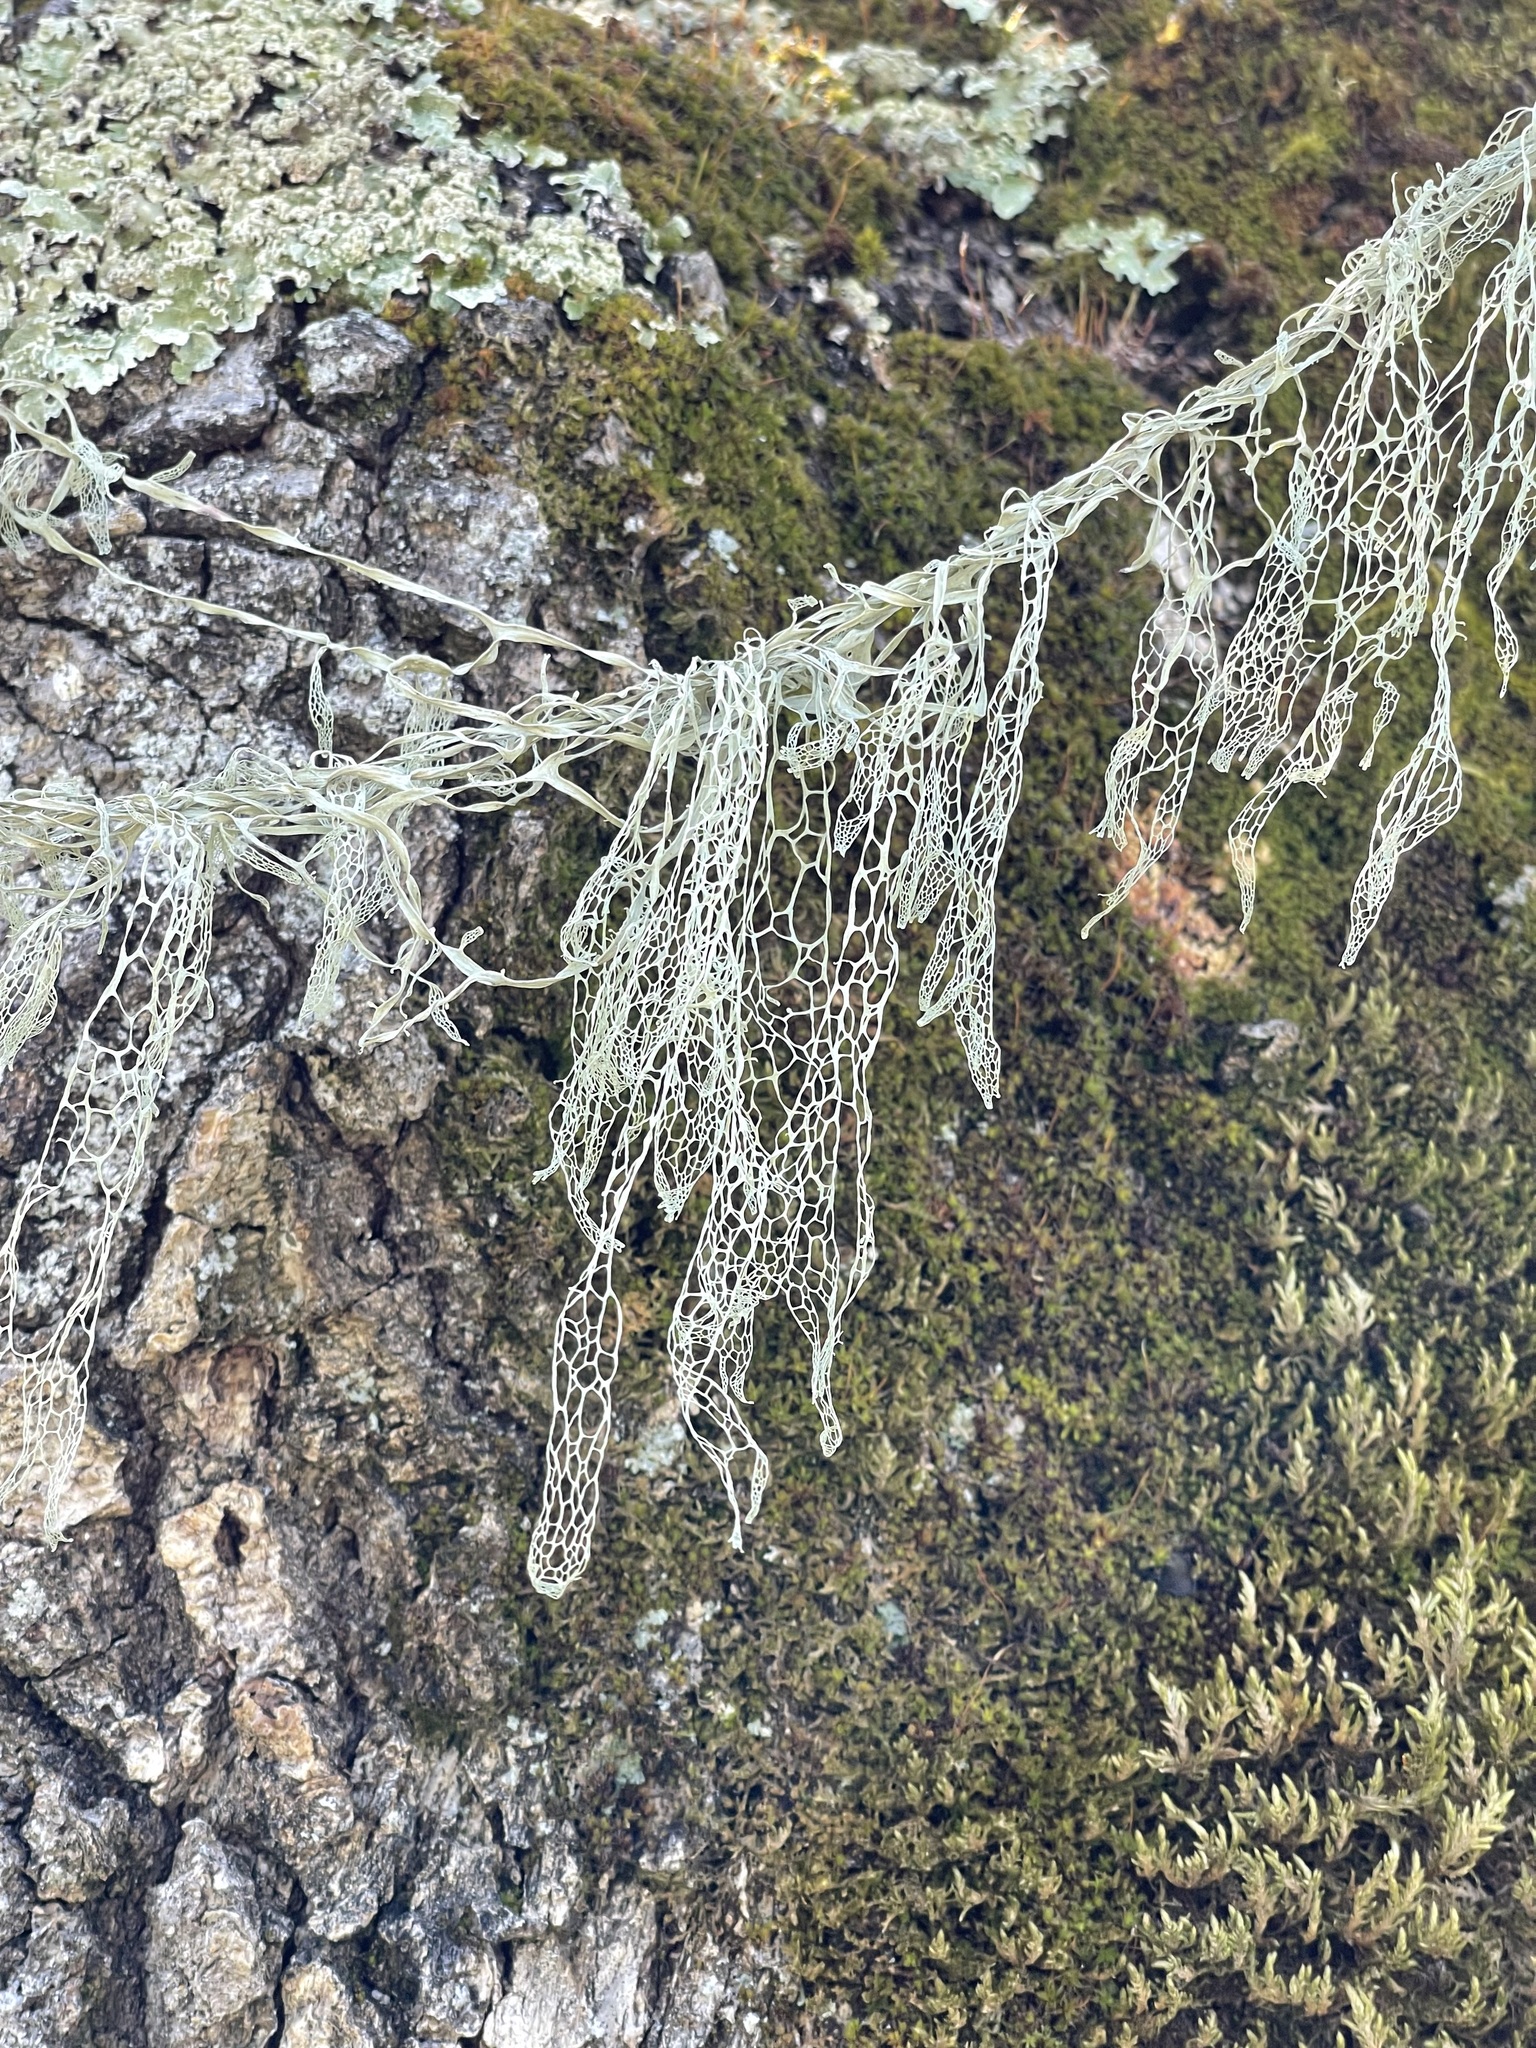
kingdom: Fungi
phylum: Ascomycota
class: Lecanoromycetes
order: Lecanorales
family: Ramalinaceae
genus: Ramalina
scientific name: Ramalina menziesii
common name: Lace lichen
